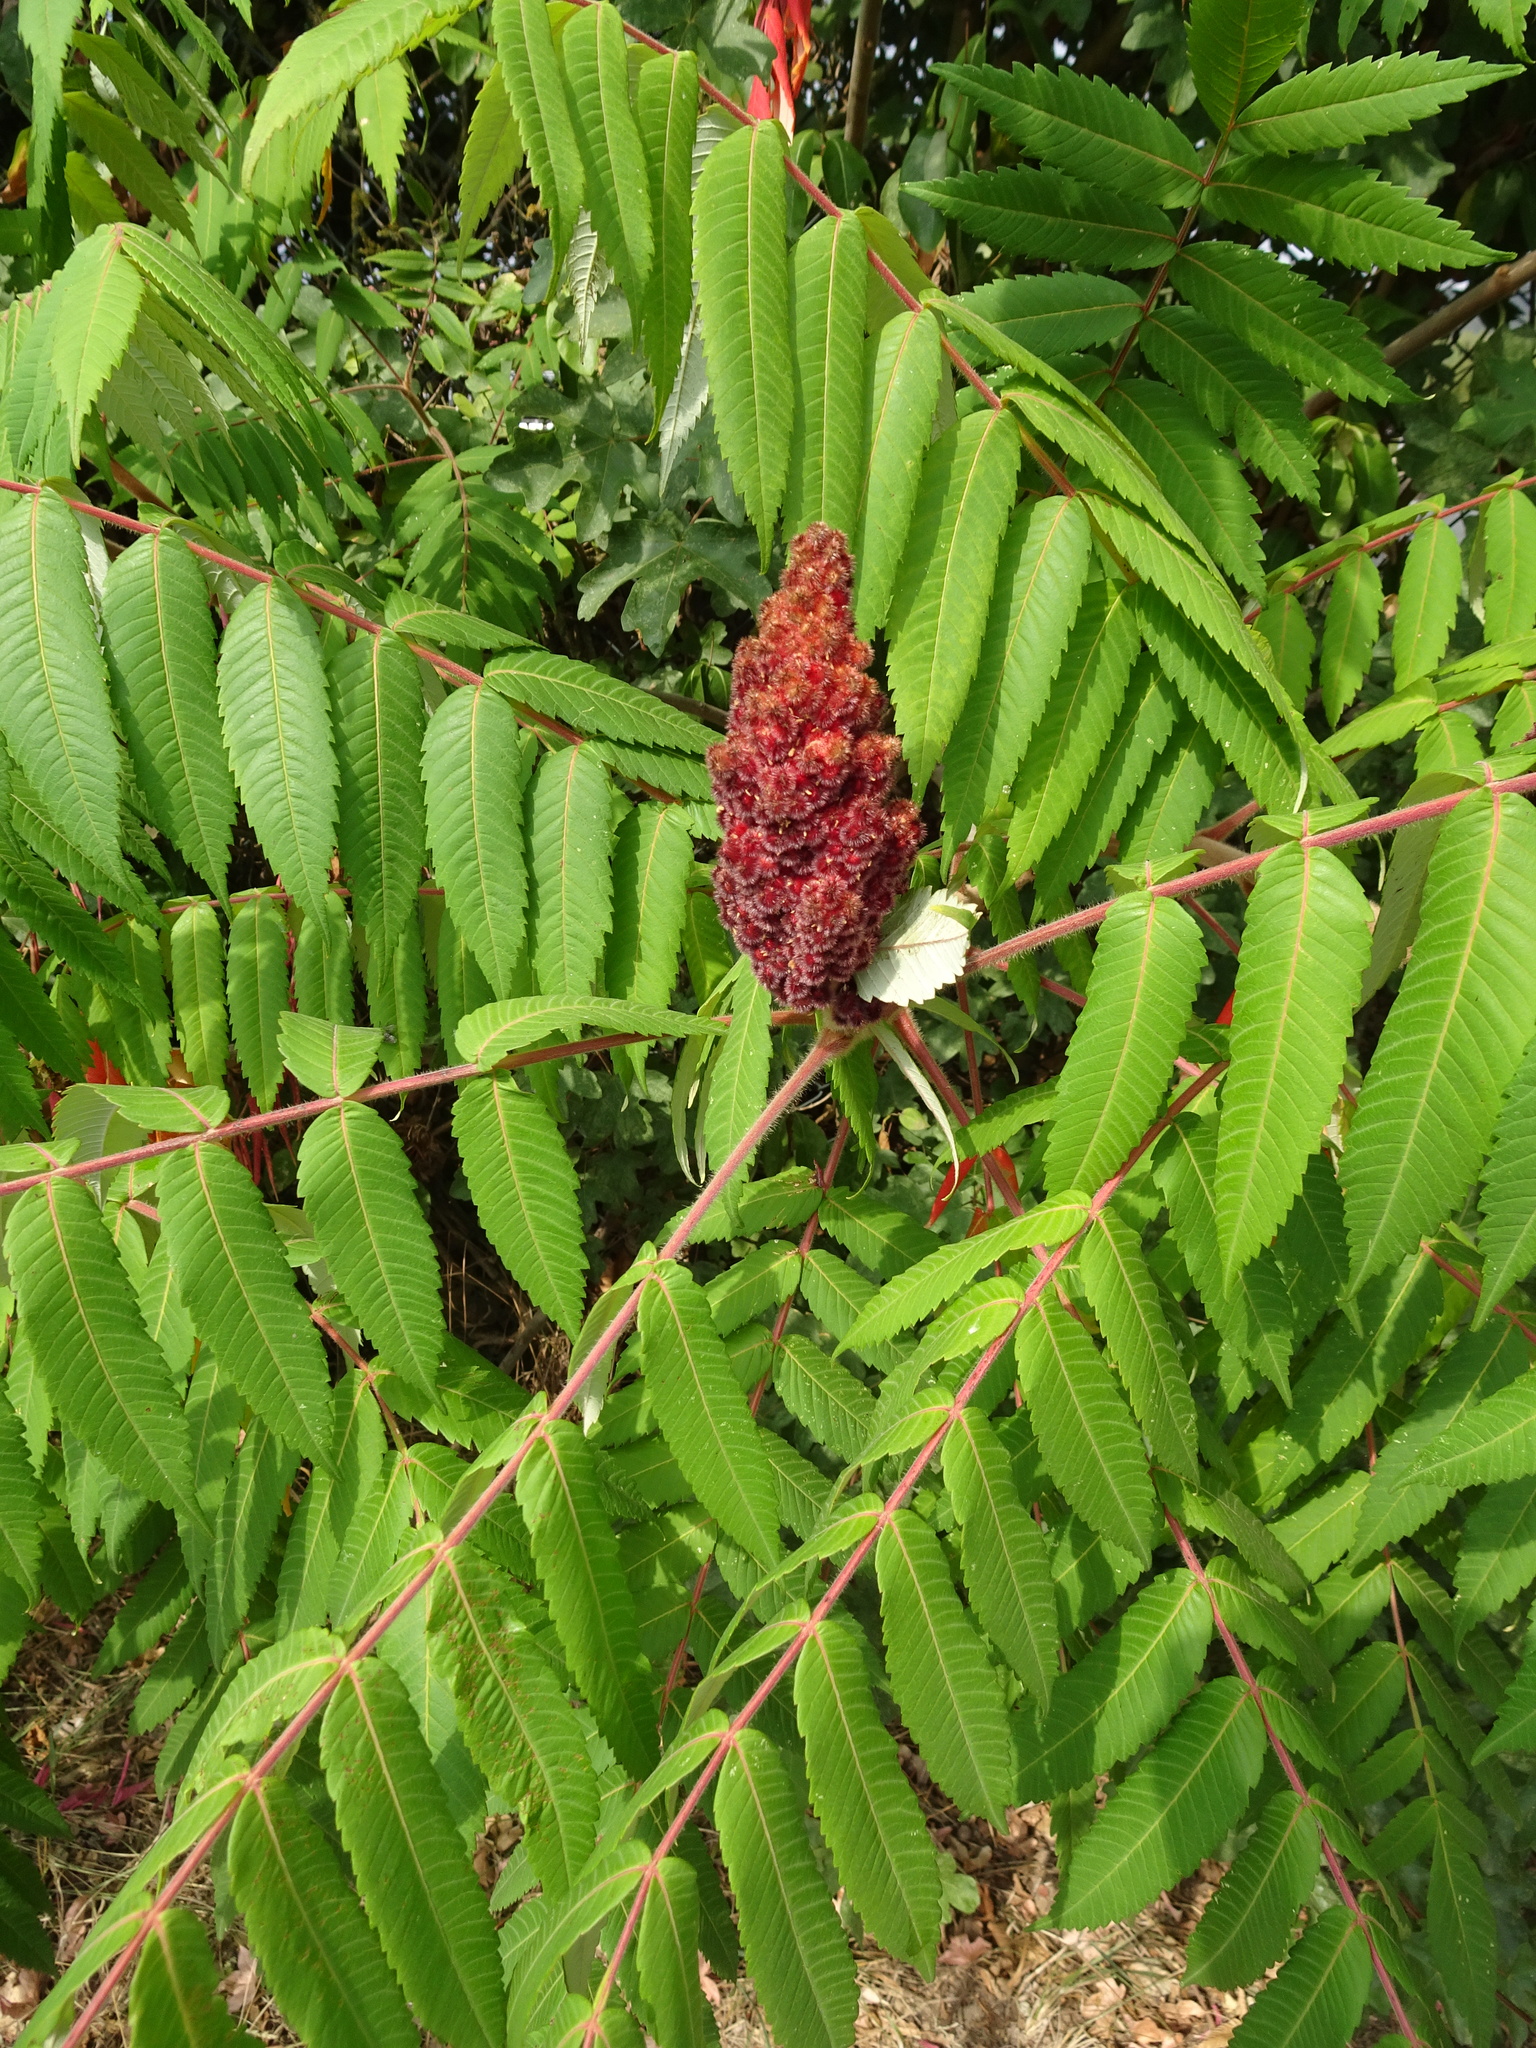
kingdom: Plantae
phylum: Tracheophyta
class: Magnoliopsida
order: Sapindales
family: Anacardiaceae
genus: Rhus
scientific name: Rhus typhina
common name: Staghorn sumac
